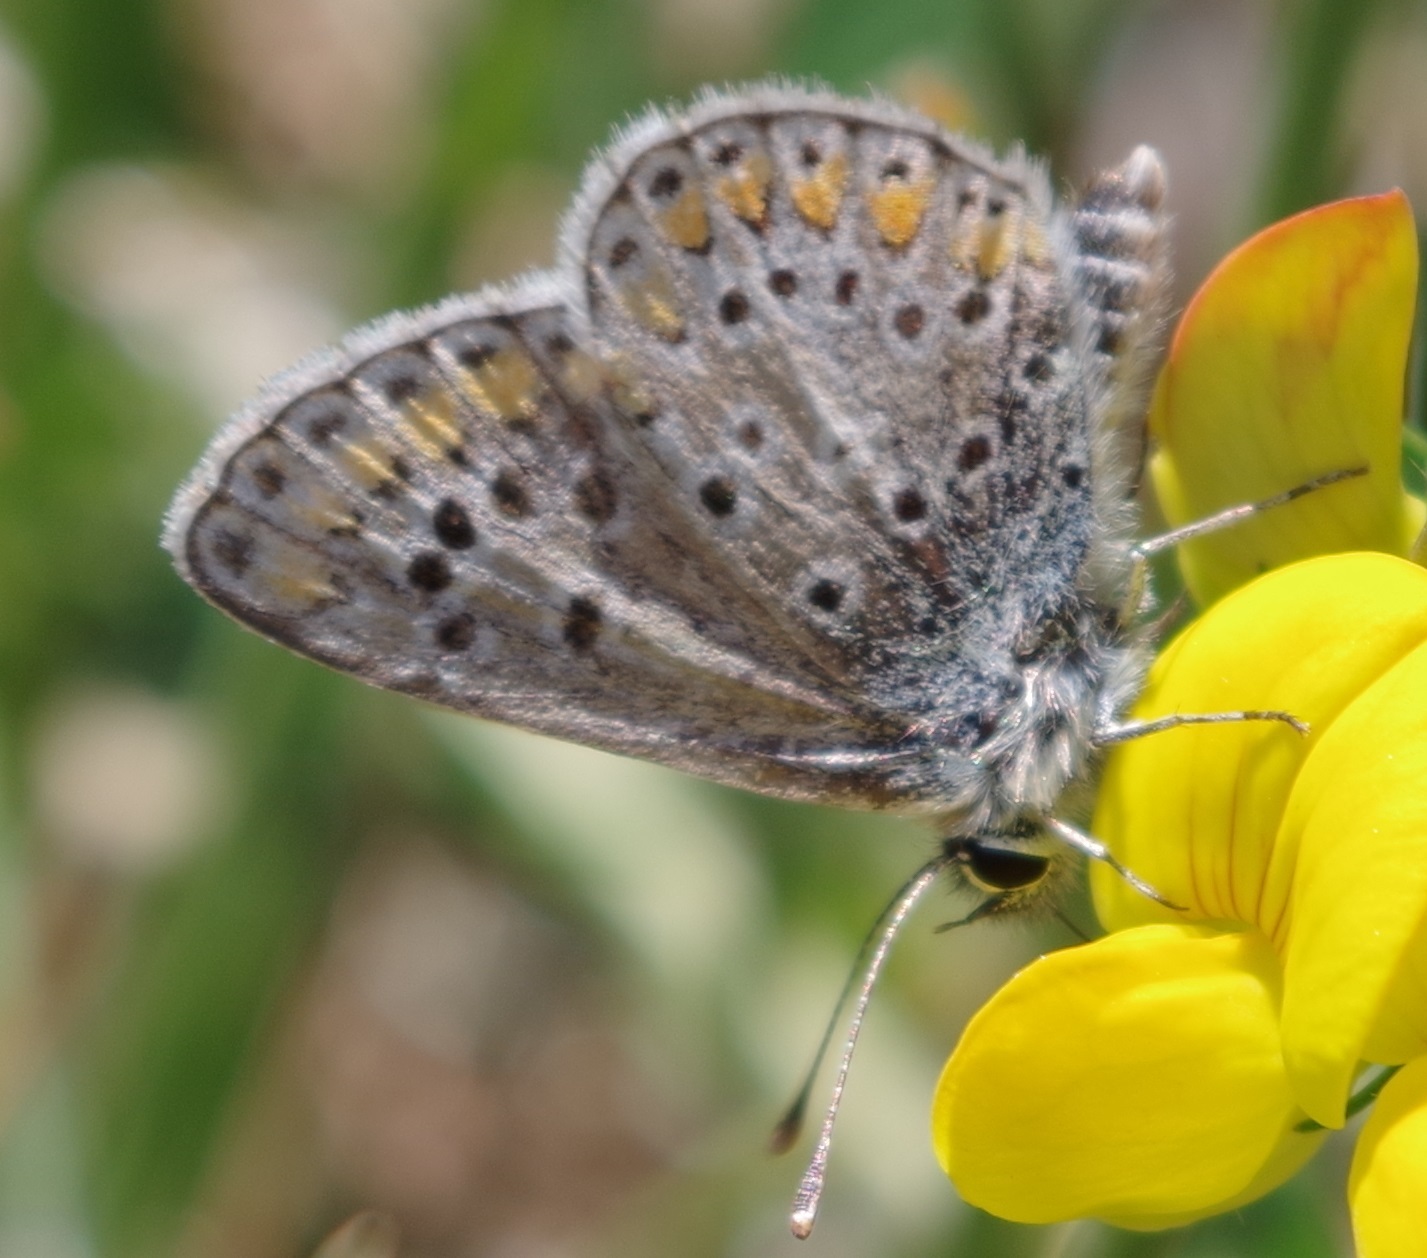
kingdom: Animalia
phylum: Arthropoda
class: Insecta
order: Lepidoptera
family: Lycaenidae
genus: Aricia
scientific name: Aricia agestis
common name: Brown argus
